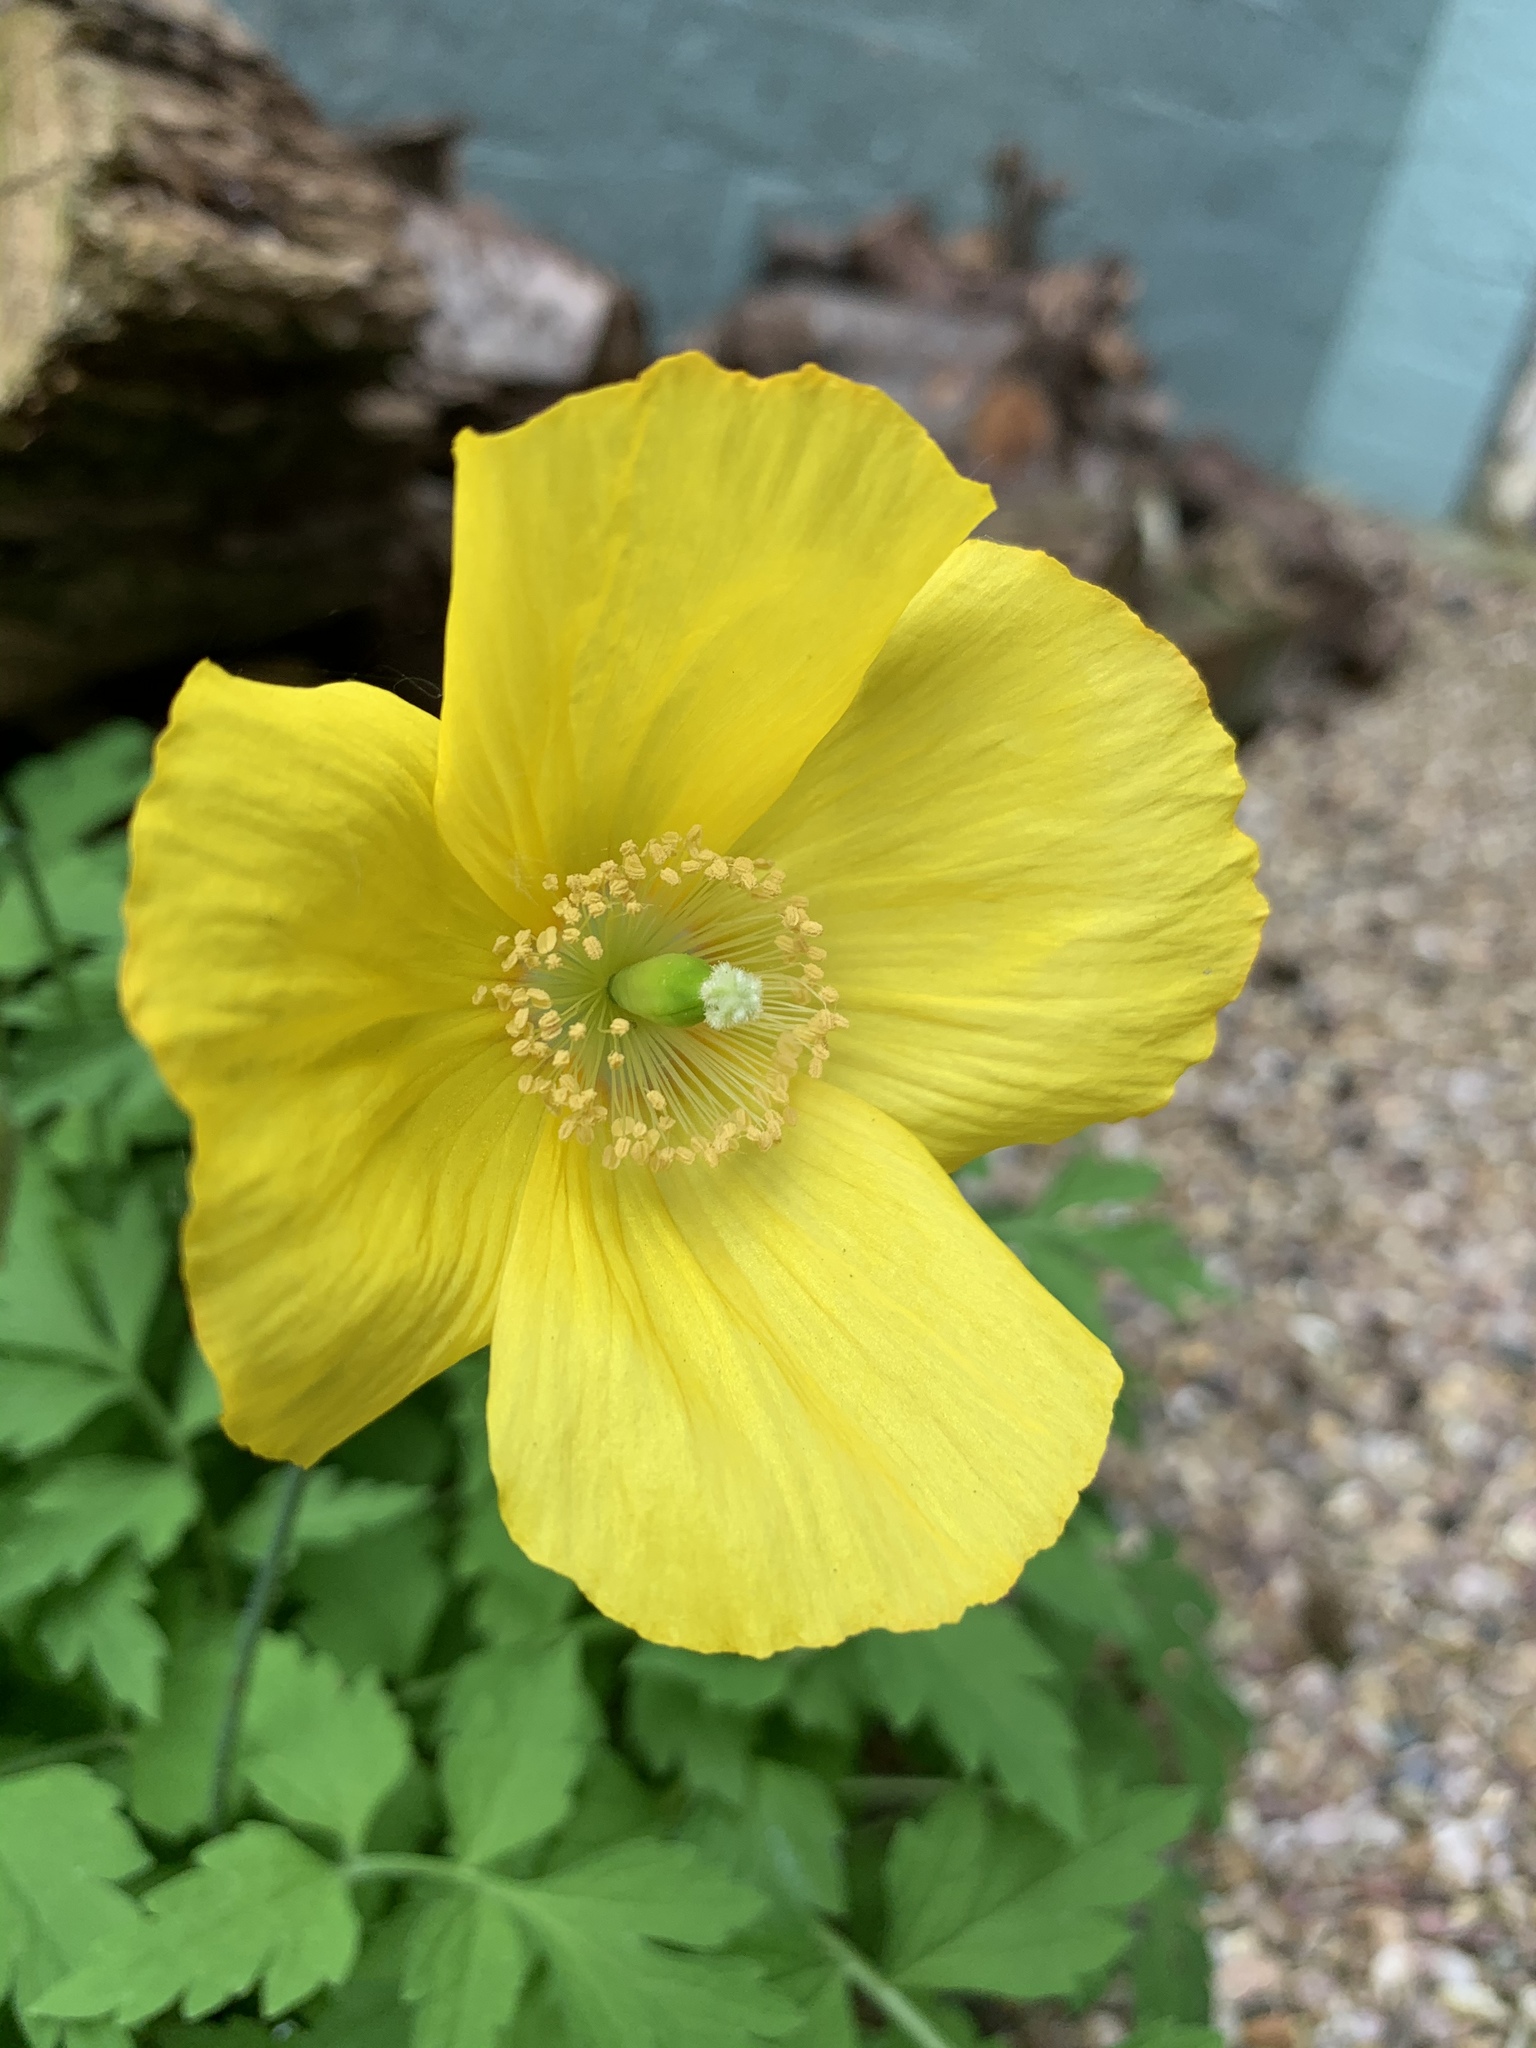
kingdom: Plantae
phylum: Tracheophyta
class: Magnoliopsida
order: Ranunculales
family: Papaveraceae
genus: Papaver
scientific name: Papaver cambricum
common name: Poppy
